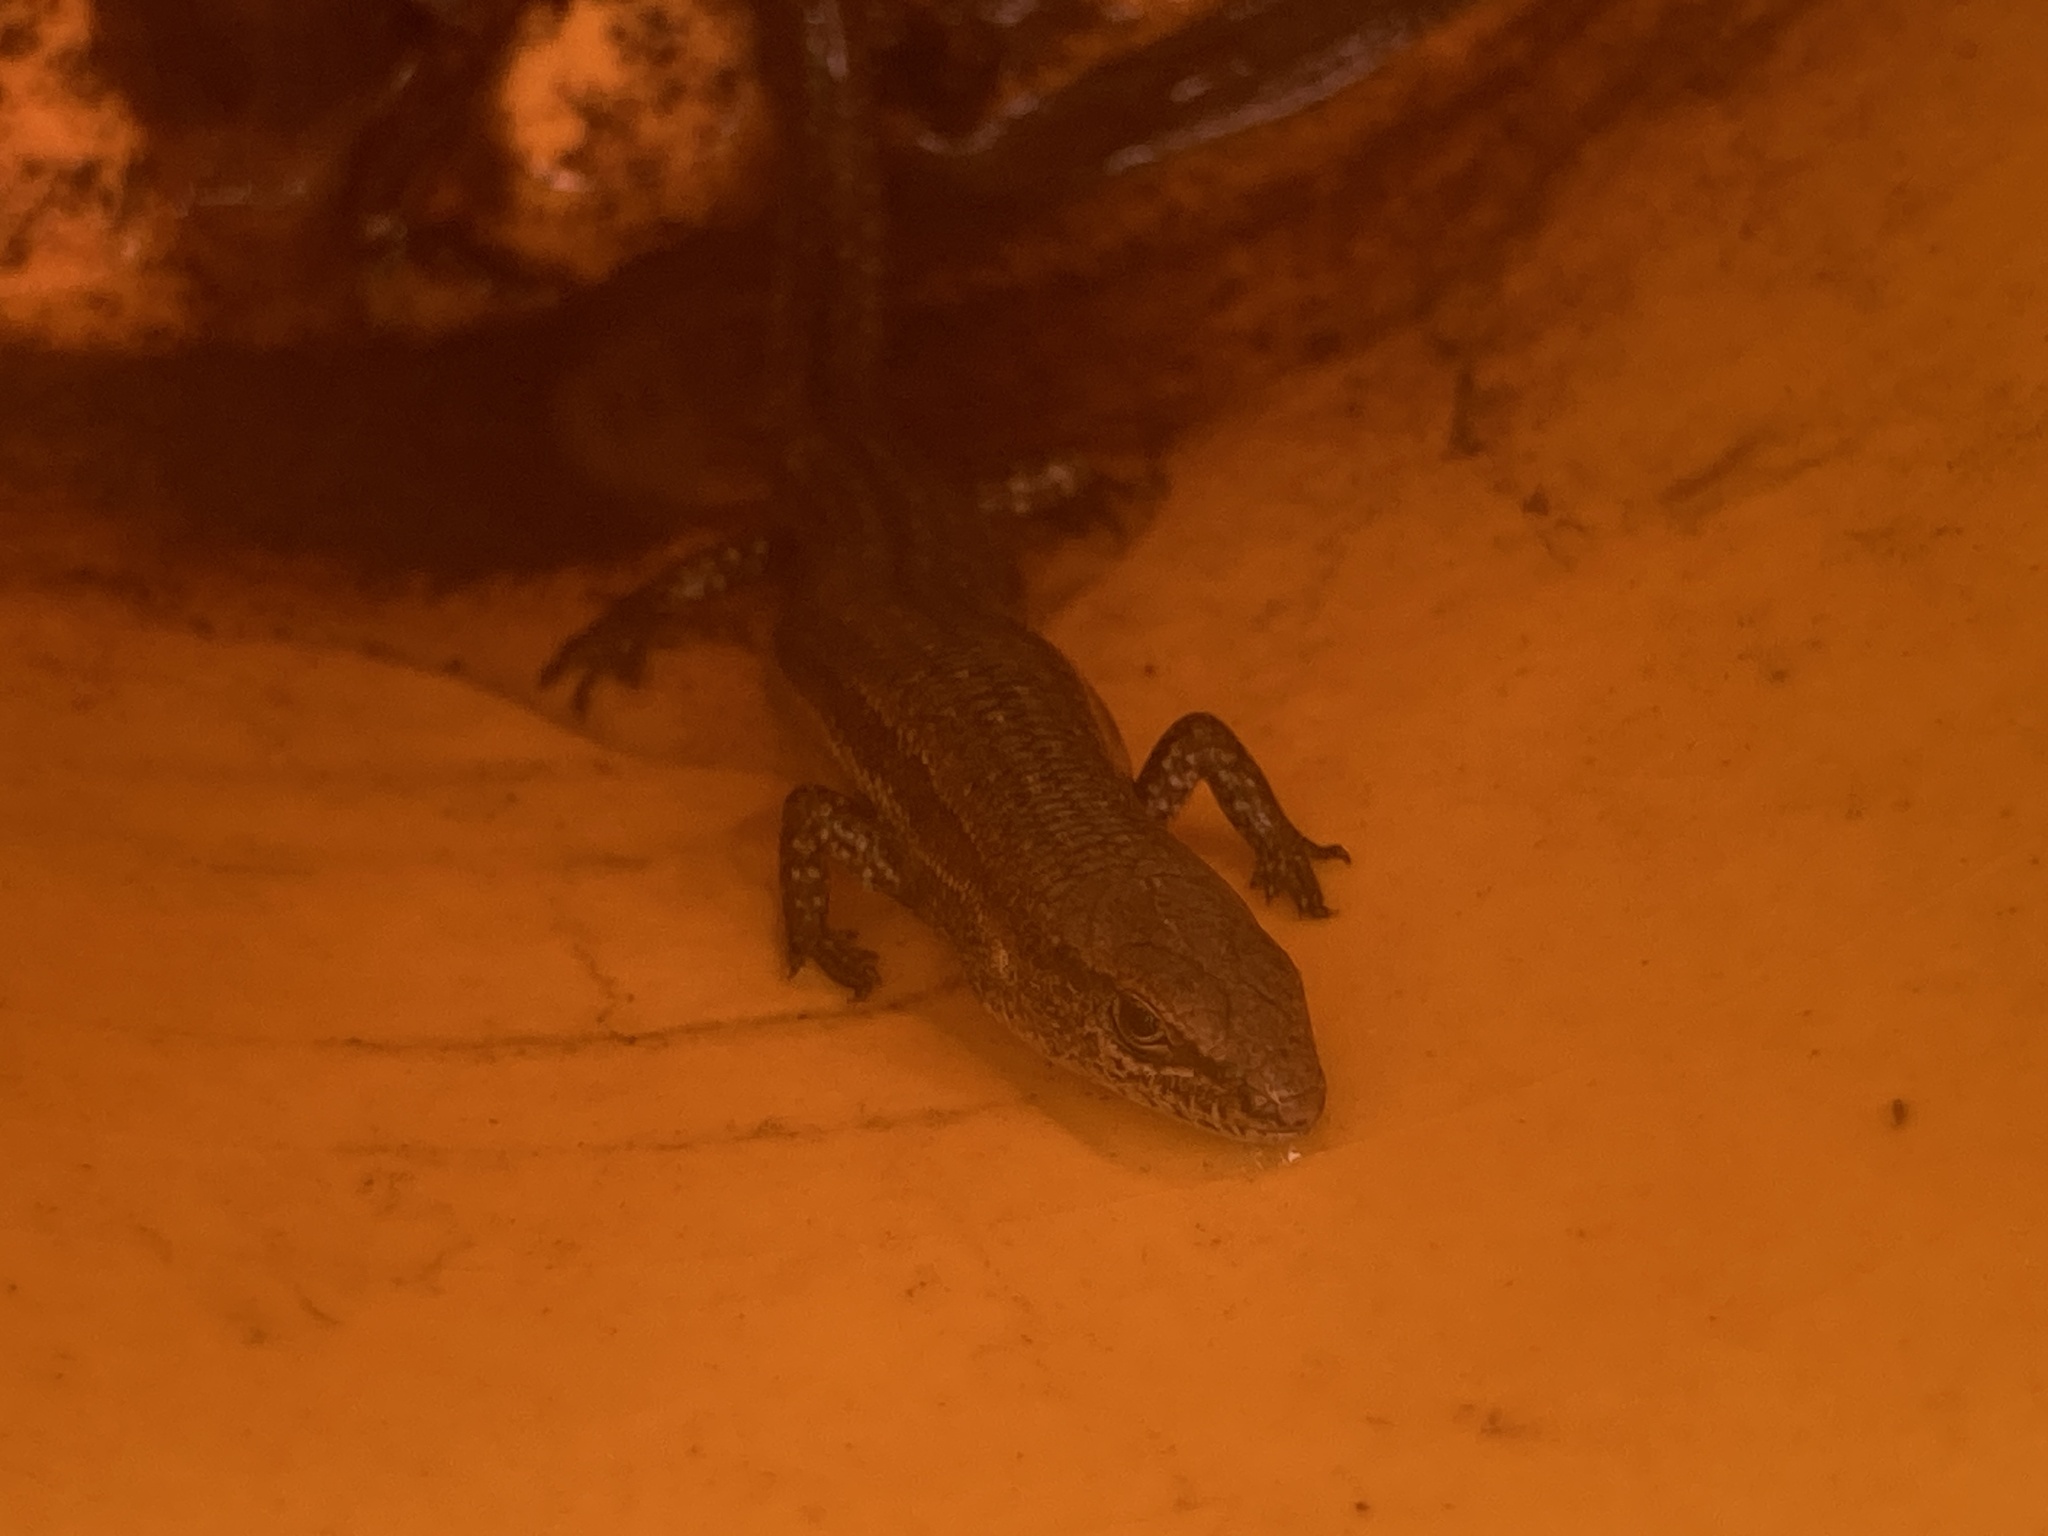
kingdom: Animalia
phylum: Chordata
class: Squamata
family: Scincidae
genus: Lampropholis
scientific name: Lampropholis guichenoti
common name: Garden skink
